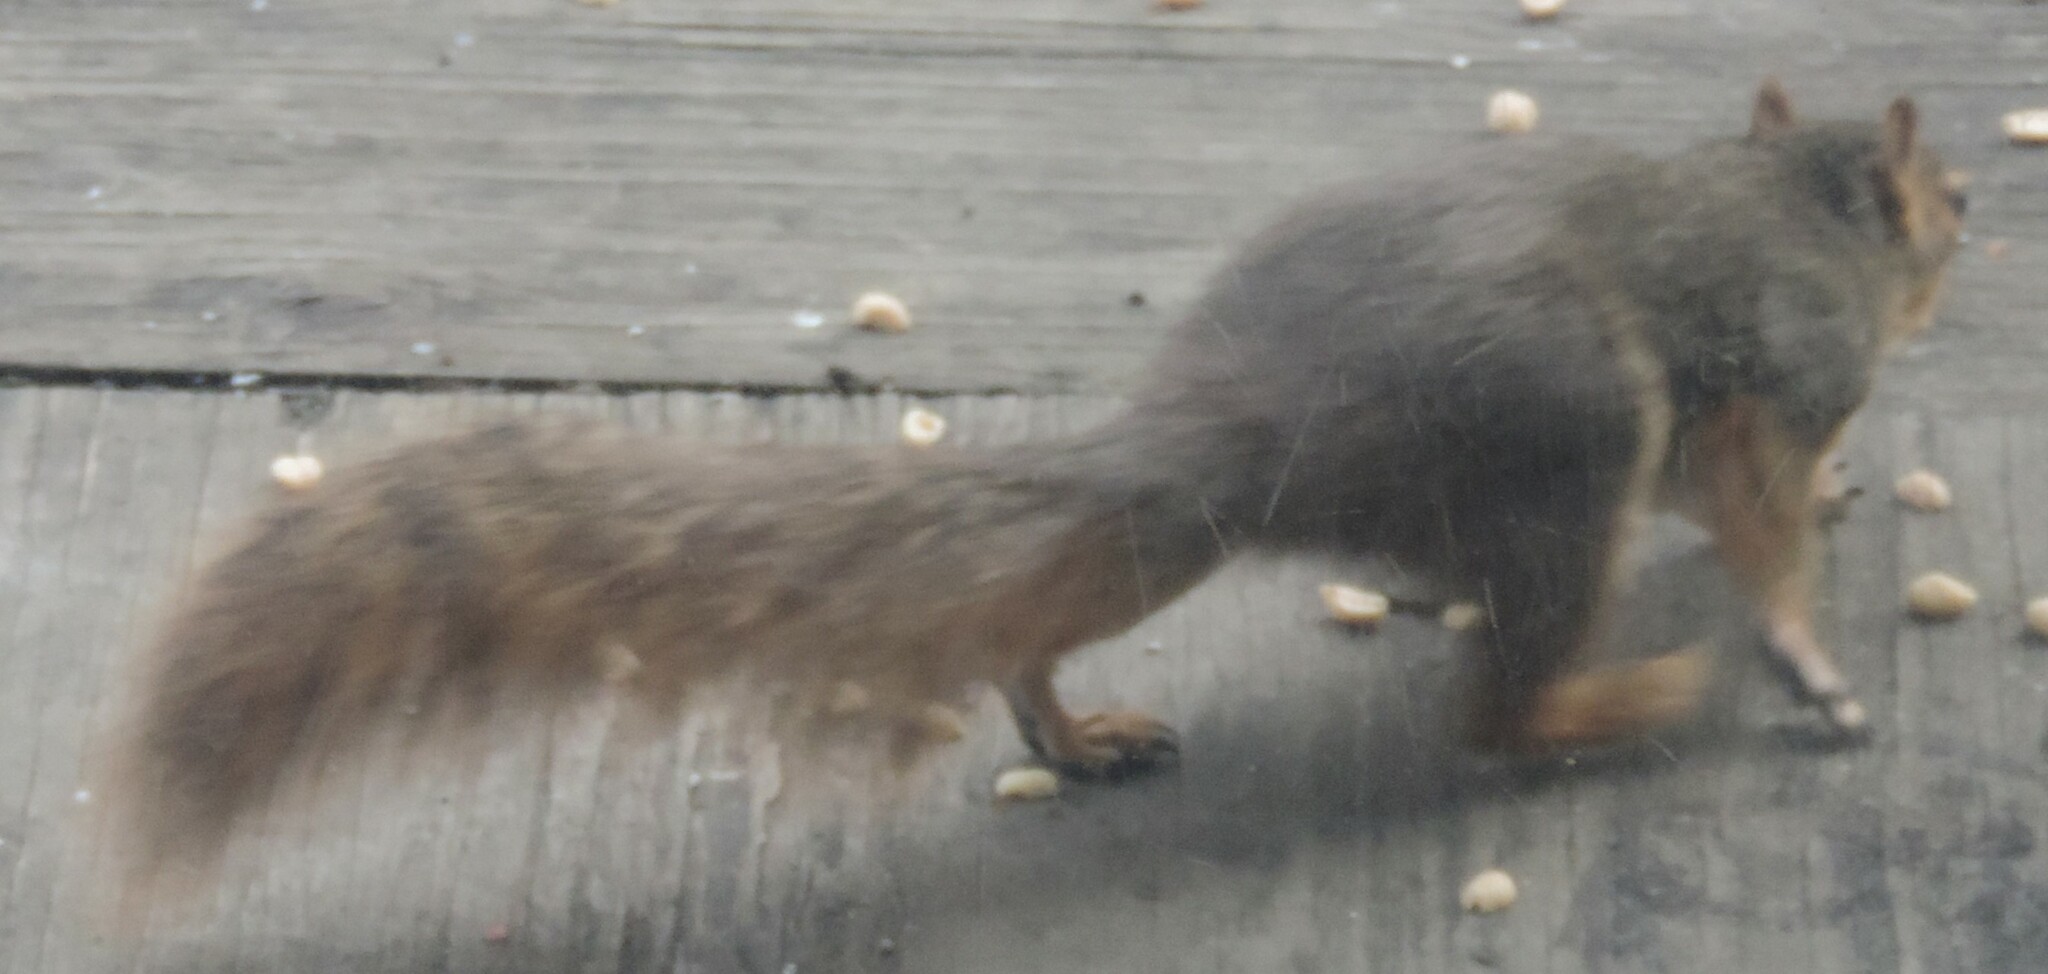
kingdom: Animalia
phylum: Chordata
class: Mammalia
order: Rodentia
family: Sciuridae
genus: Sciurus
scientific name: Sciurus niger
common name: Fox squirrel
